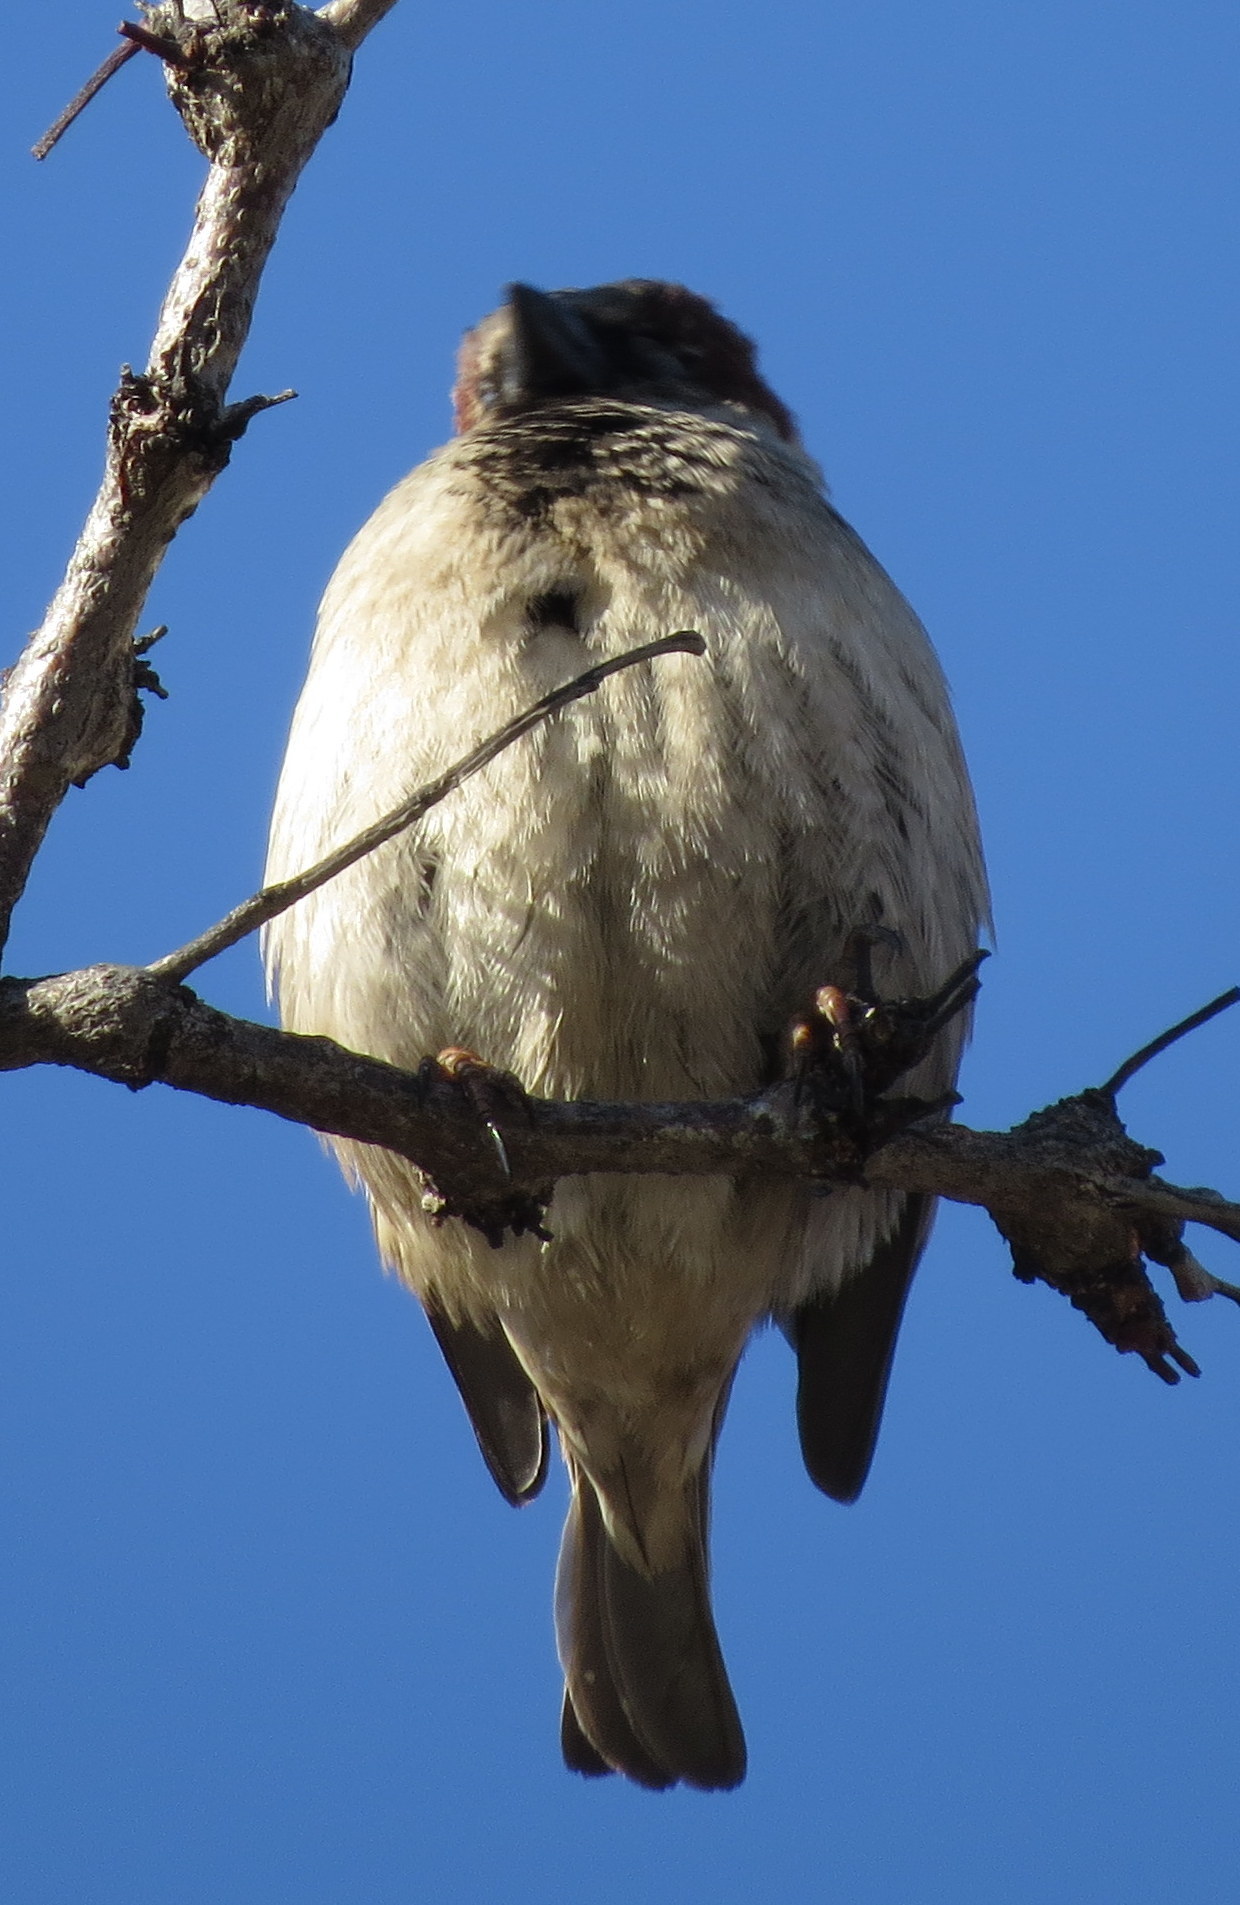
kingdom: Animalia
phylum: Chordata
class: Aves
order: Passeriformes
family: Passeridae
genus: Passer
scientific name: Passer domesticus
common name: House sparrow
